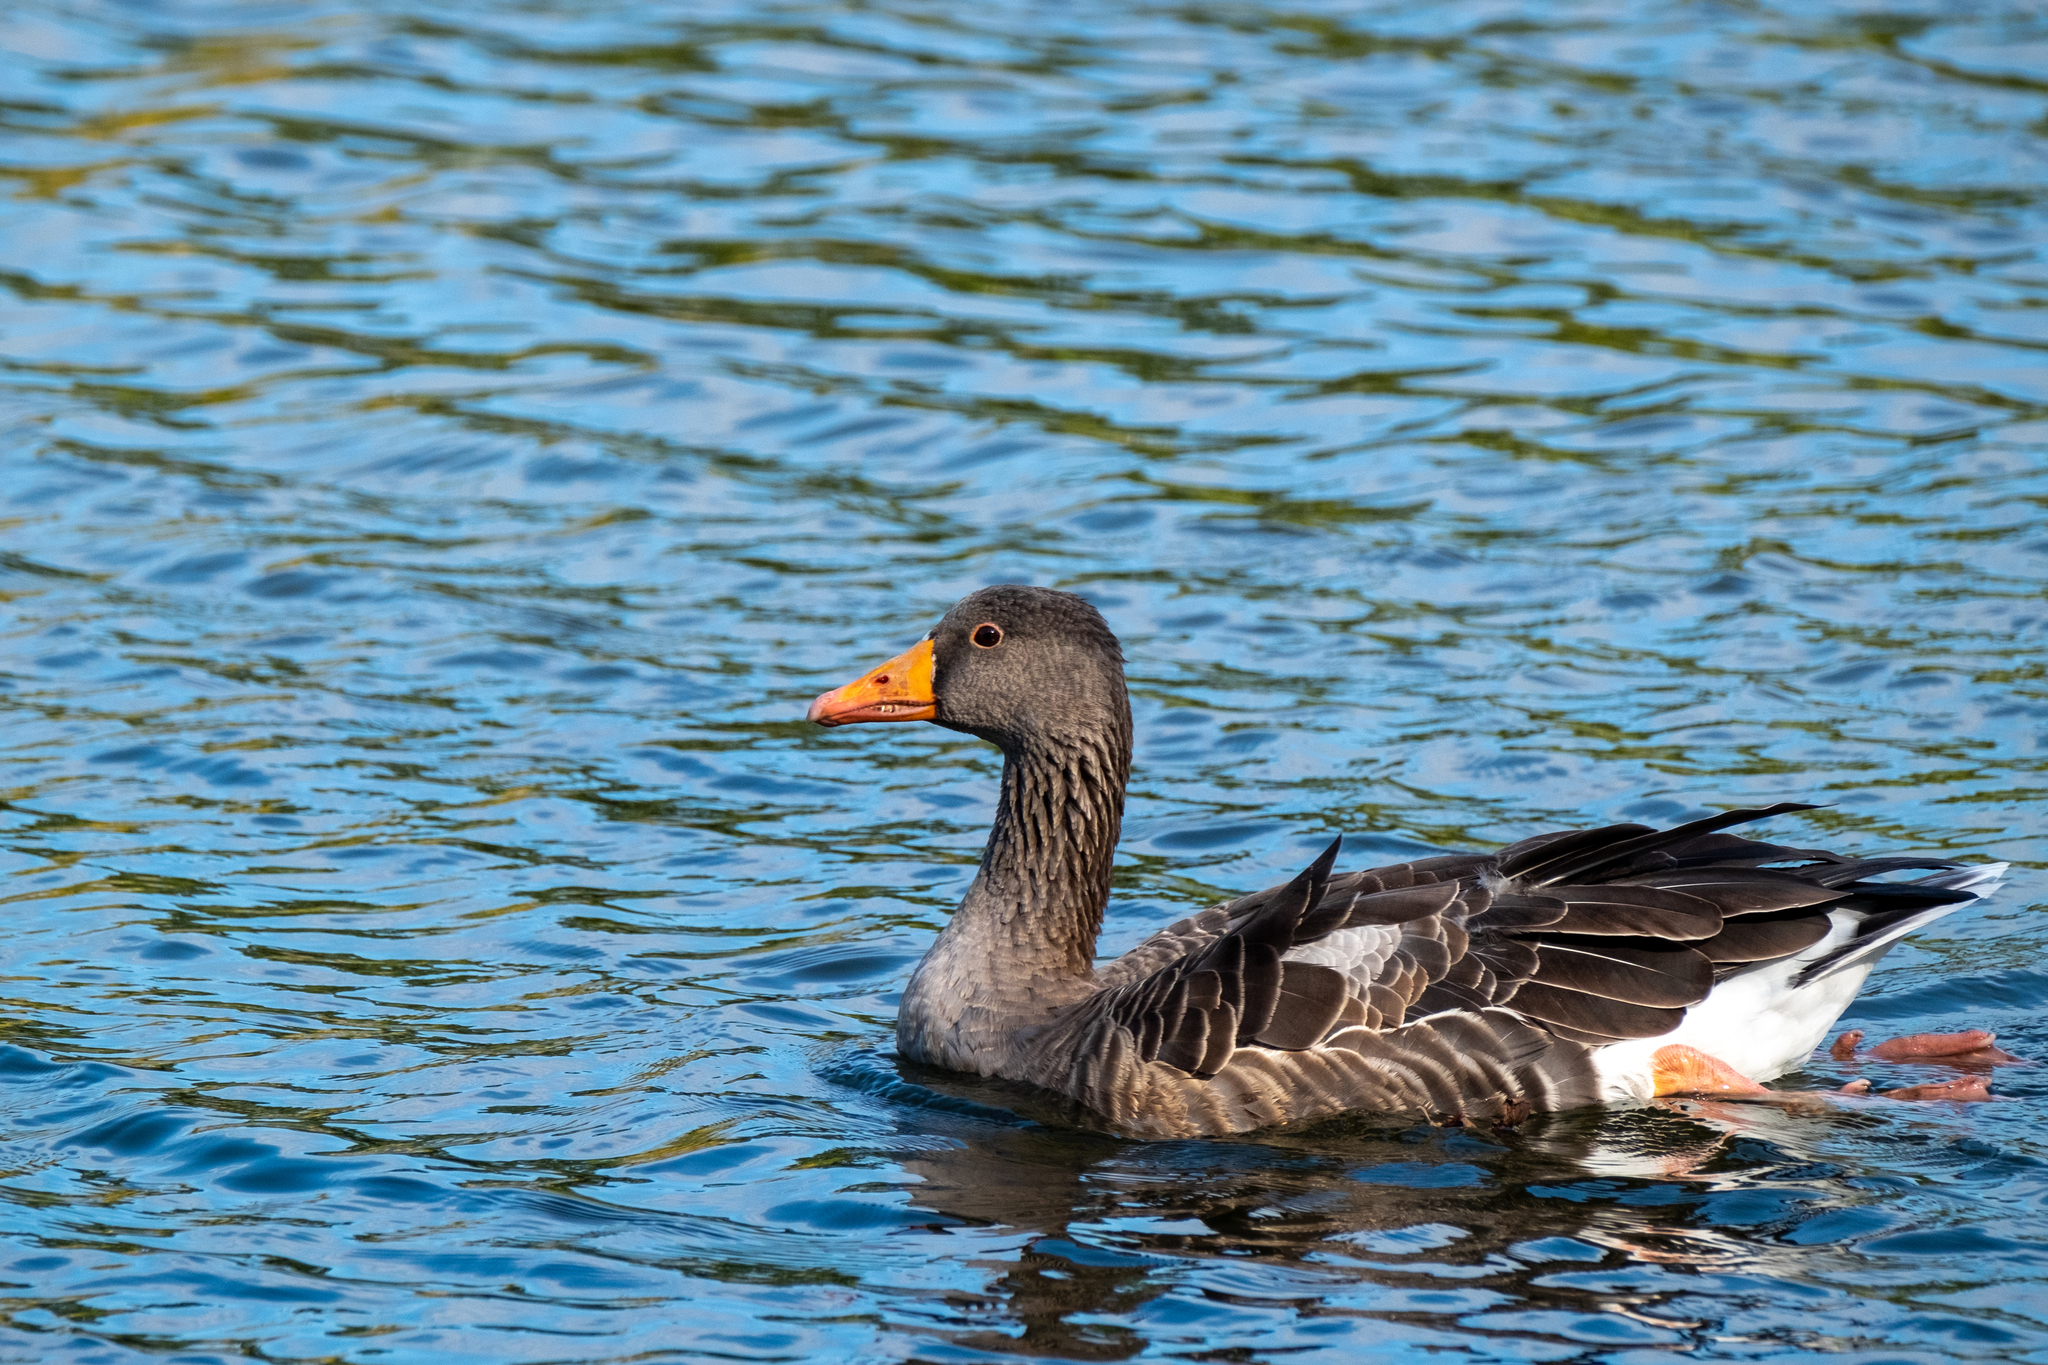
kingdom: Animalia
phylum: Chordata
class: Aves
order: Anseriformes
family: Anatidae
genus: Anser
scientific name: Anser anser
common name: Greylag goose
